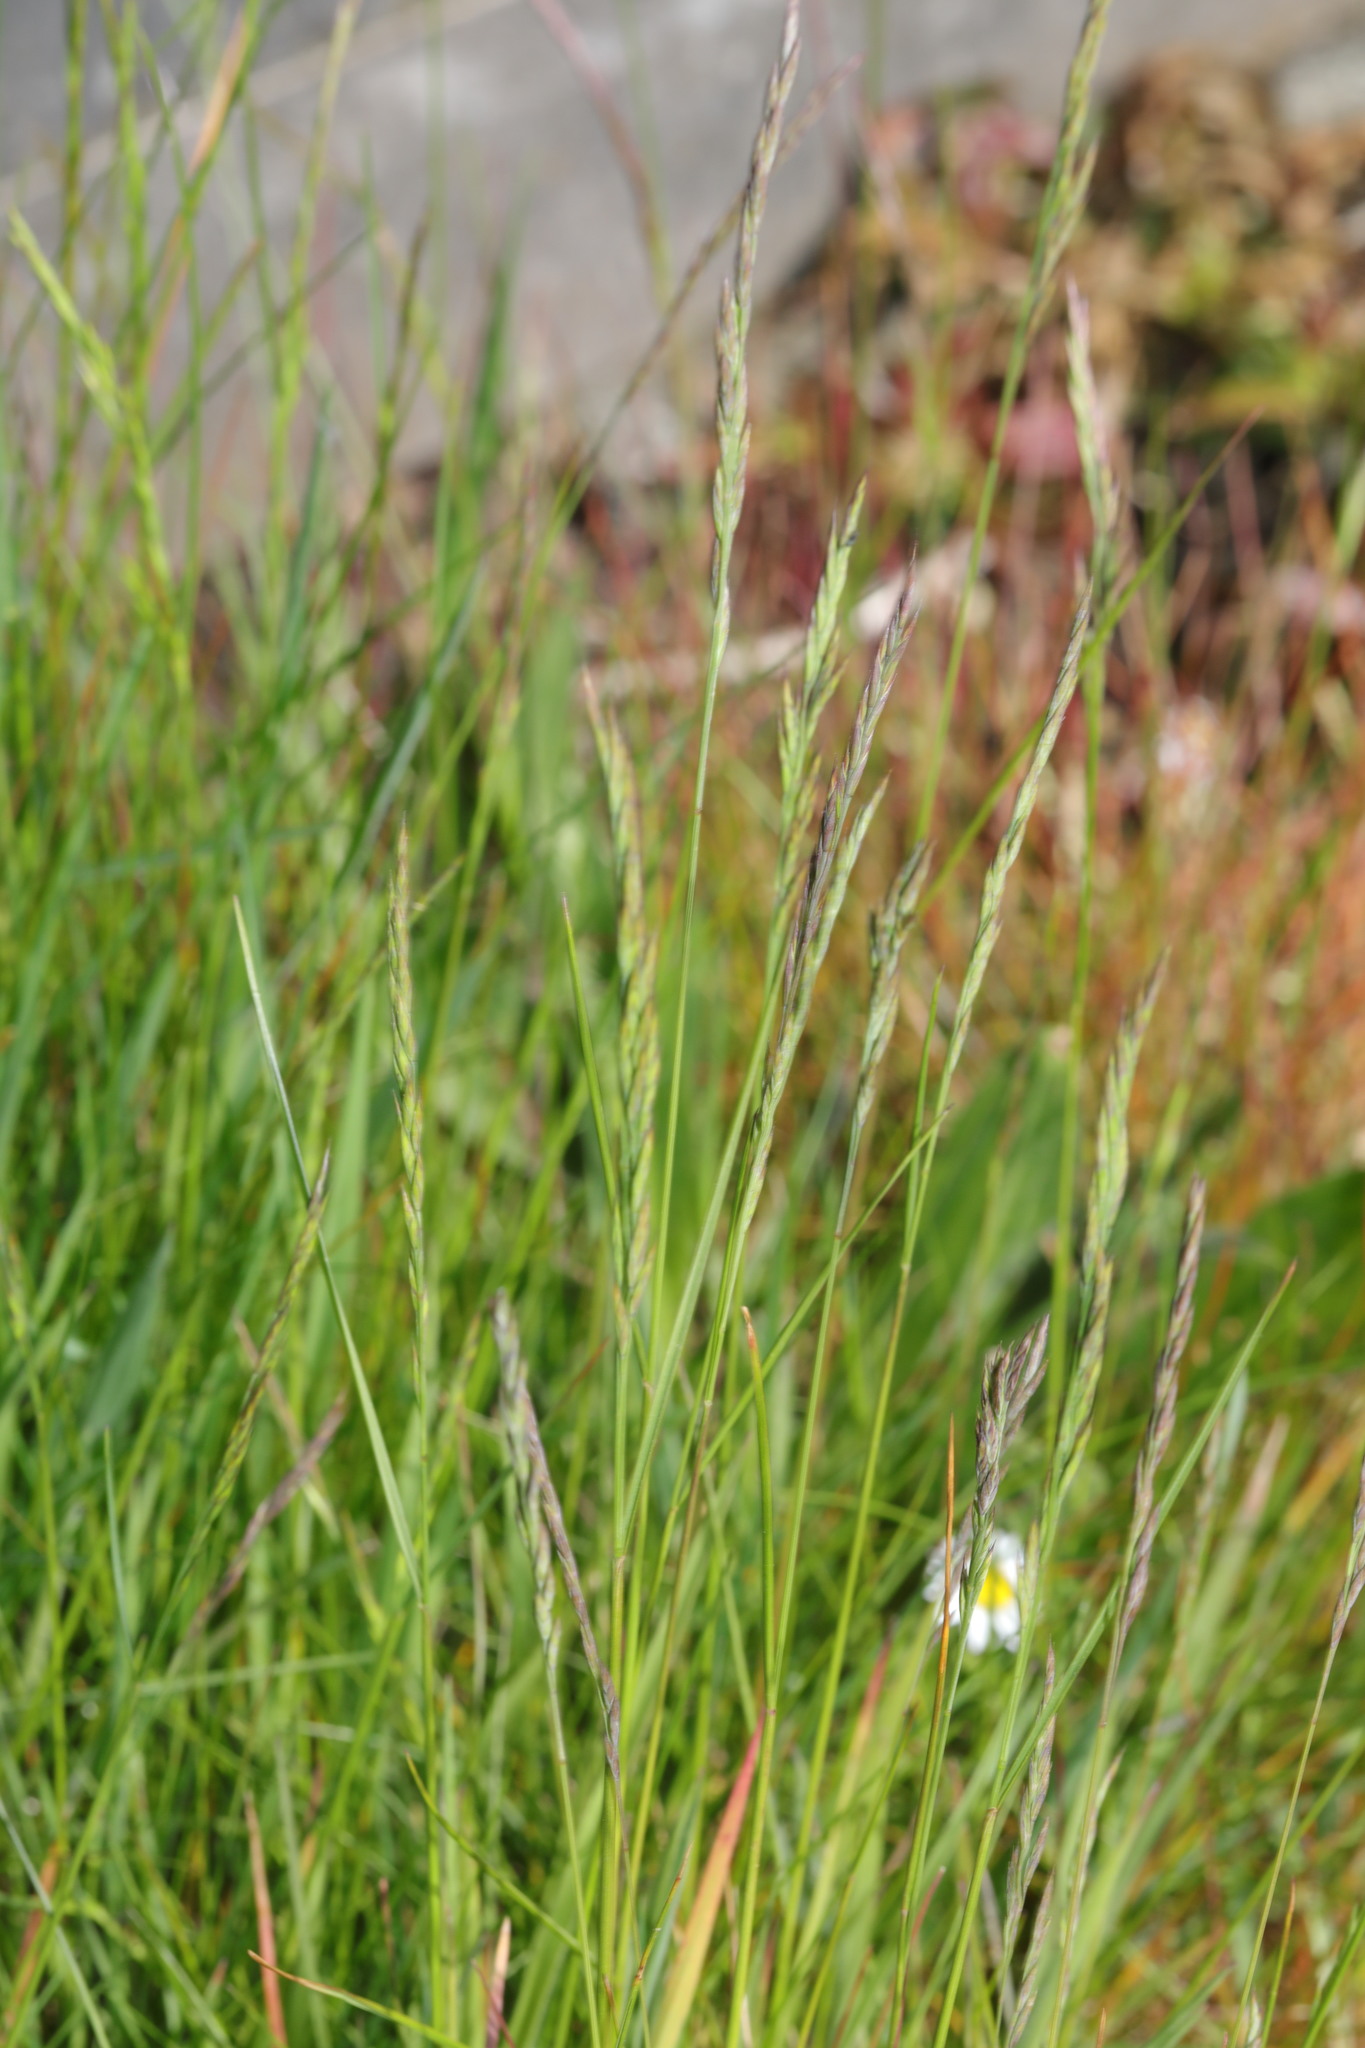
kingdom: Plantae
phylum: Tracheophyta
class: Liliopsida
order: Poales
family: Poaceae
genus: Festuca
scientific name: Festuca rubra
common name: Red fescue
